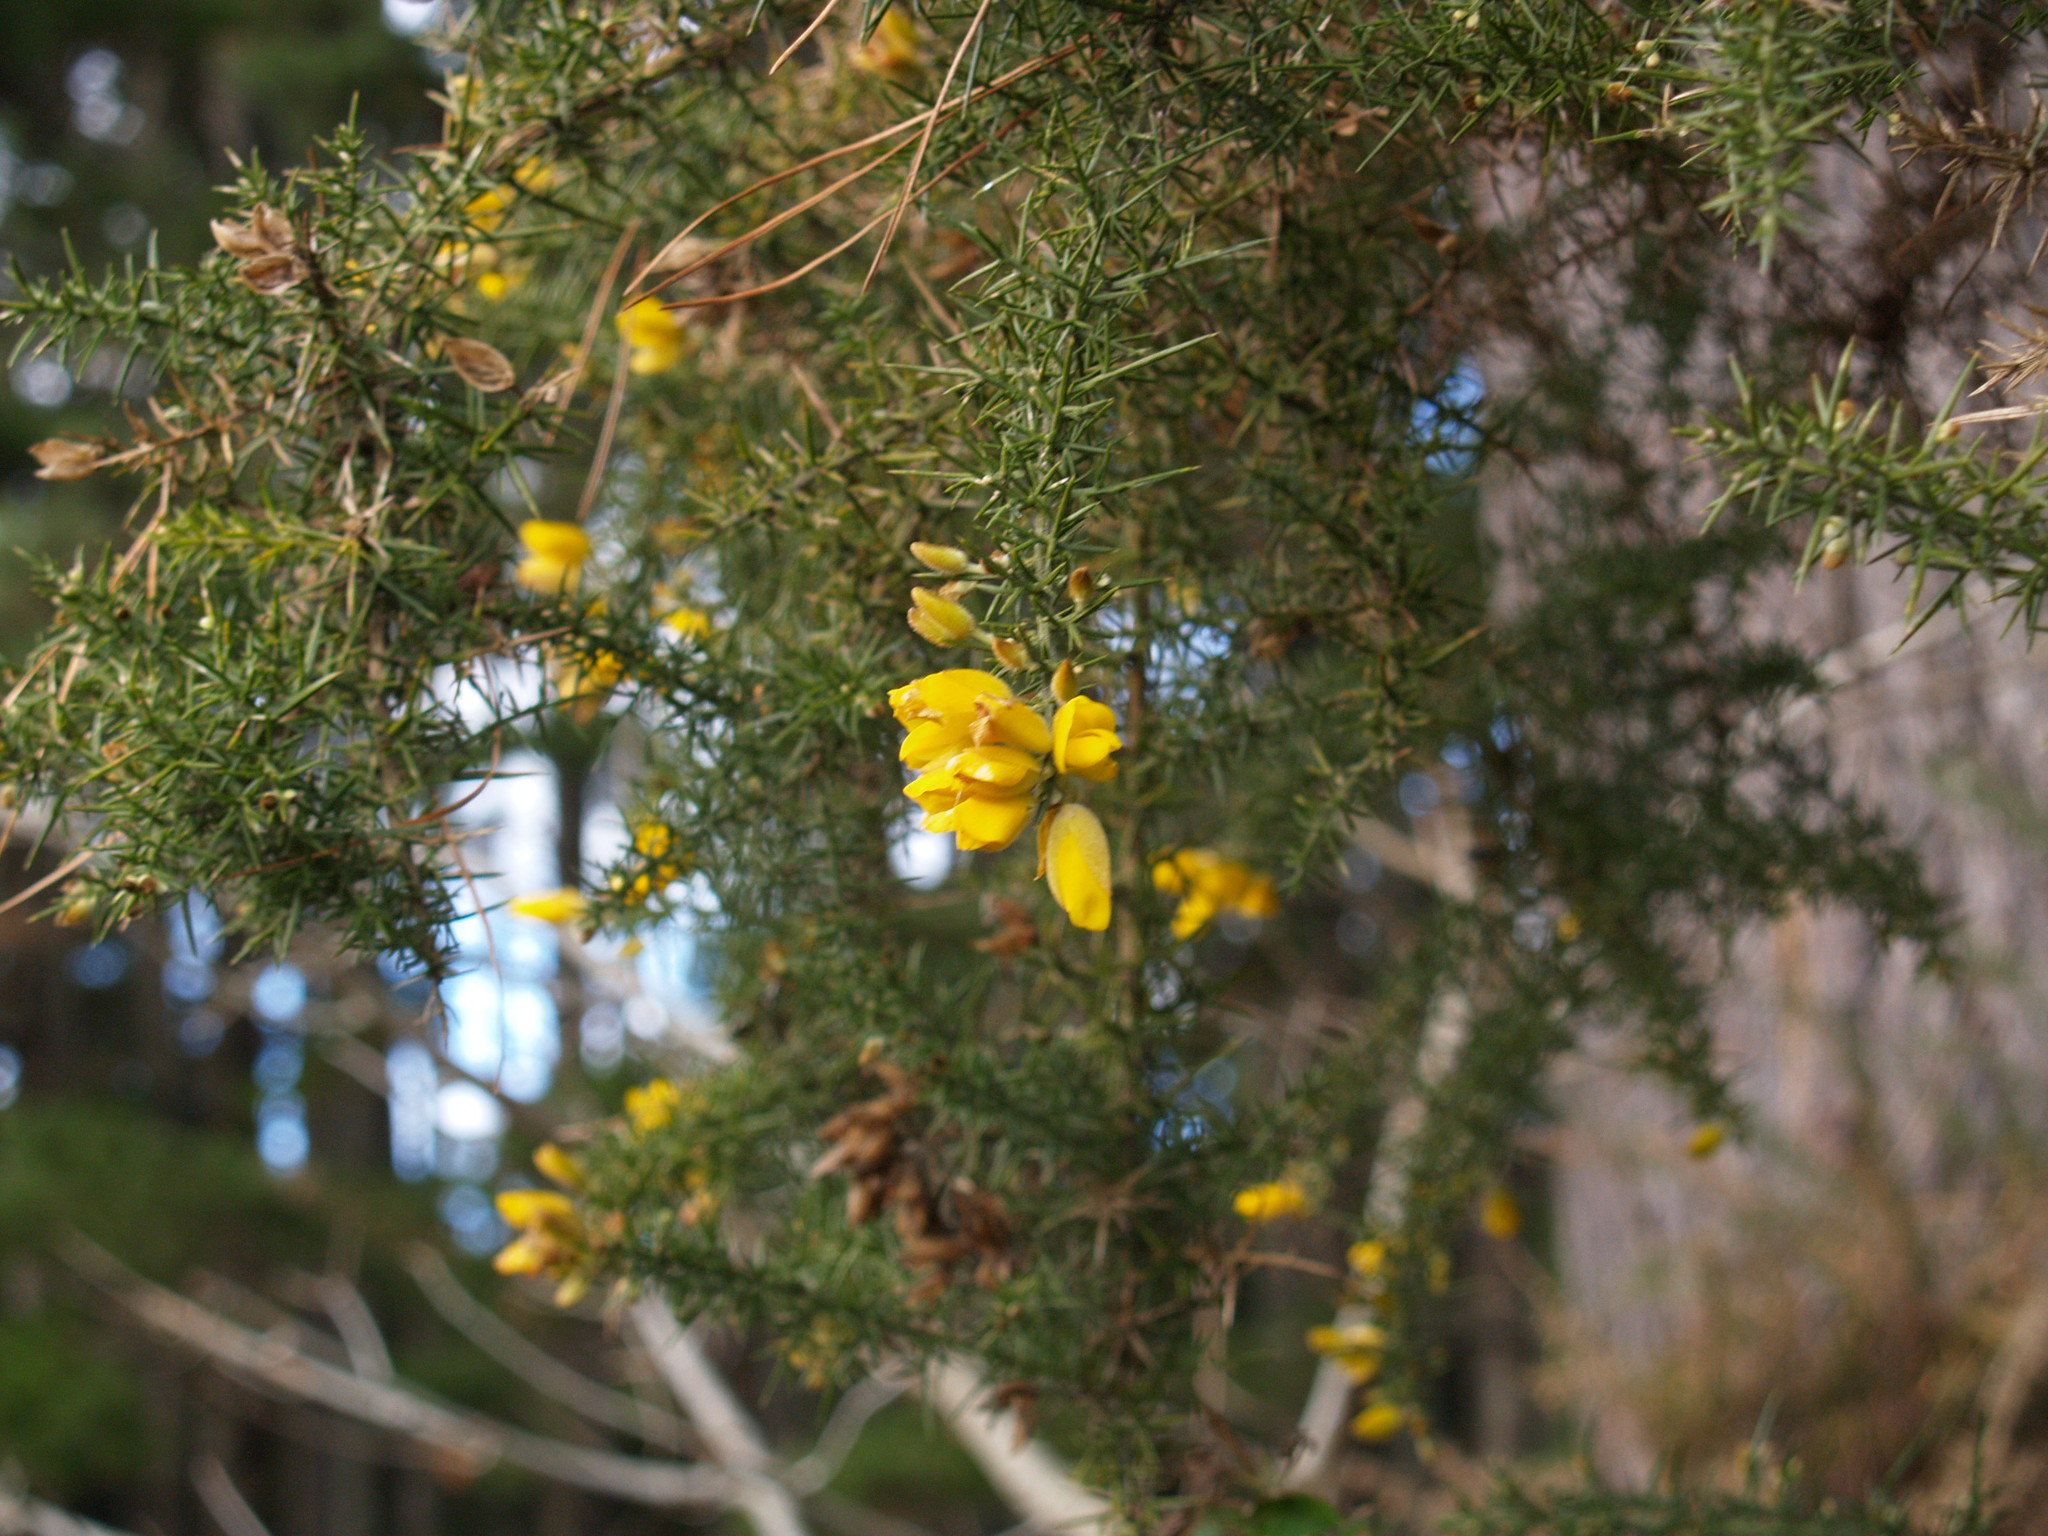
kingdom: Plantae
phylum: Tracheophyta
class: Magnoliopsida
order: Fabales
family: Fabaceae
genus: Ulex
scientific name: Ulex europaeus
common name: Common gorse
